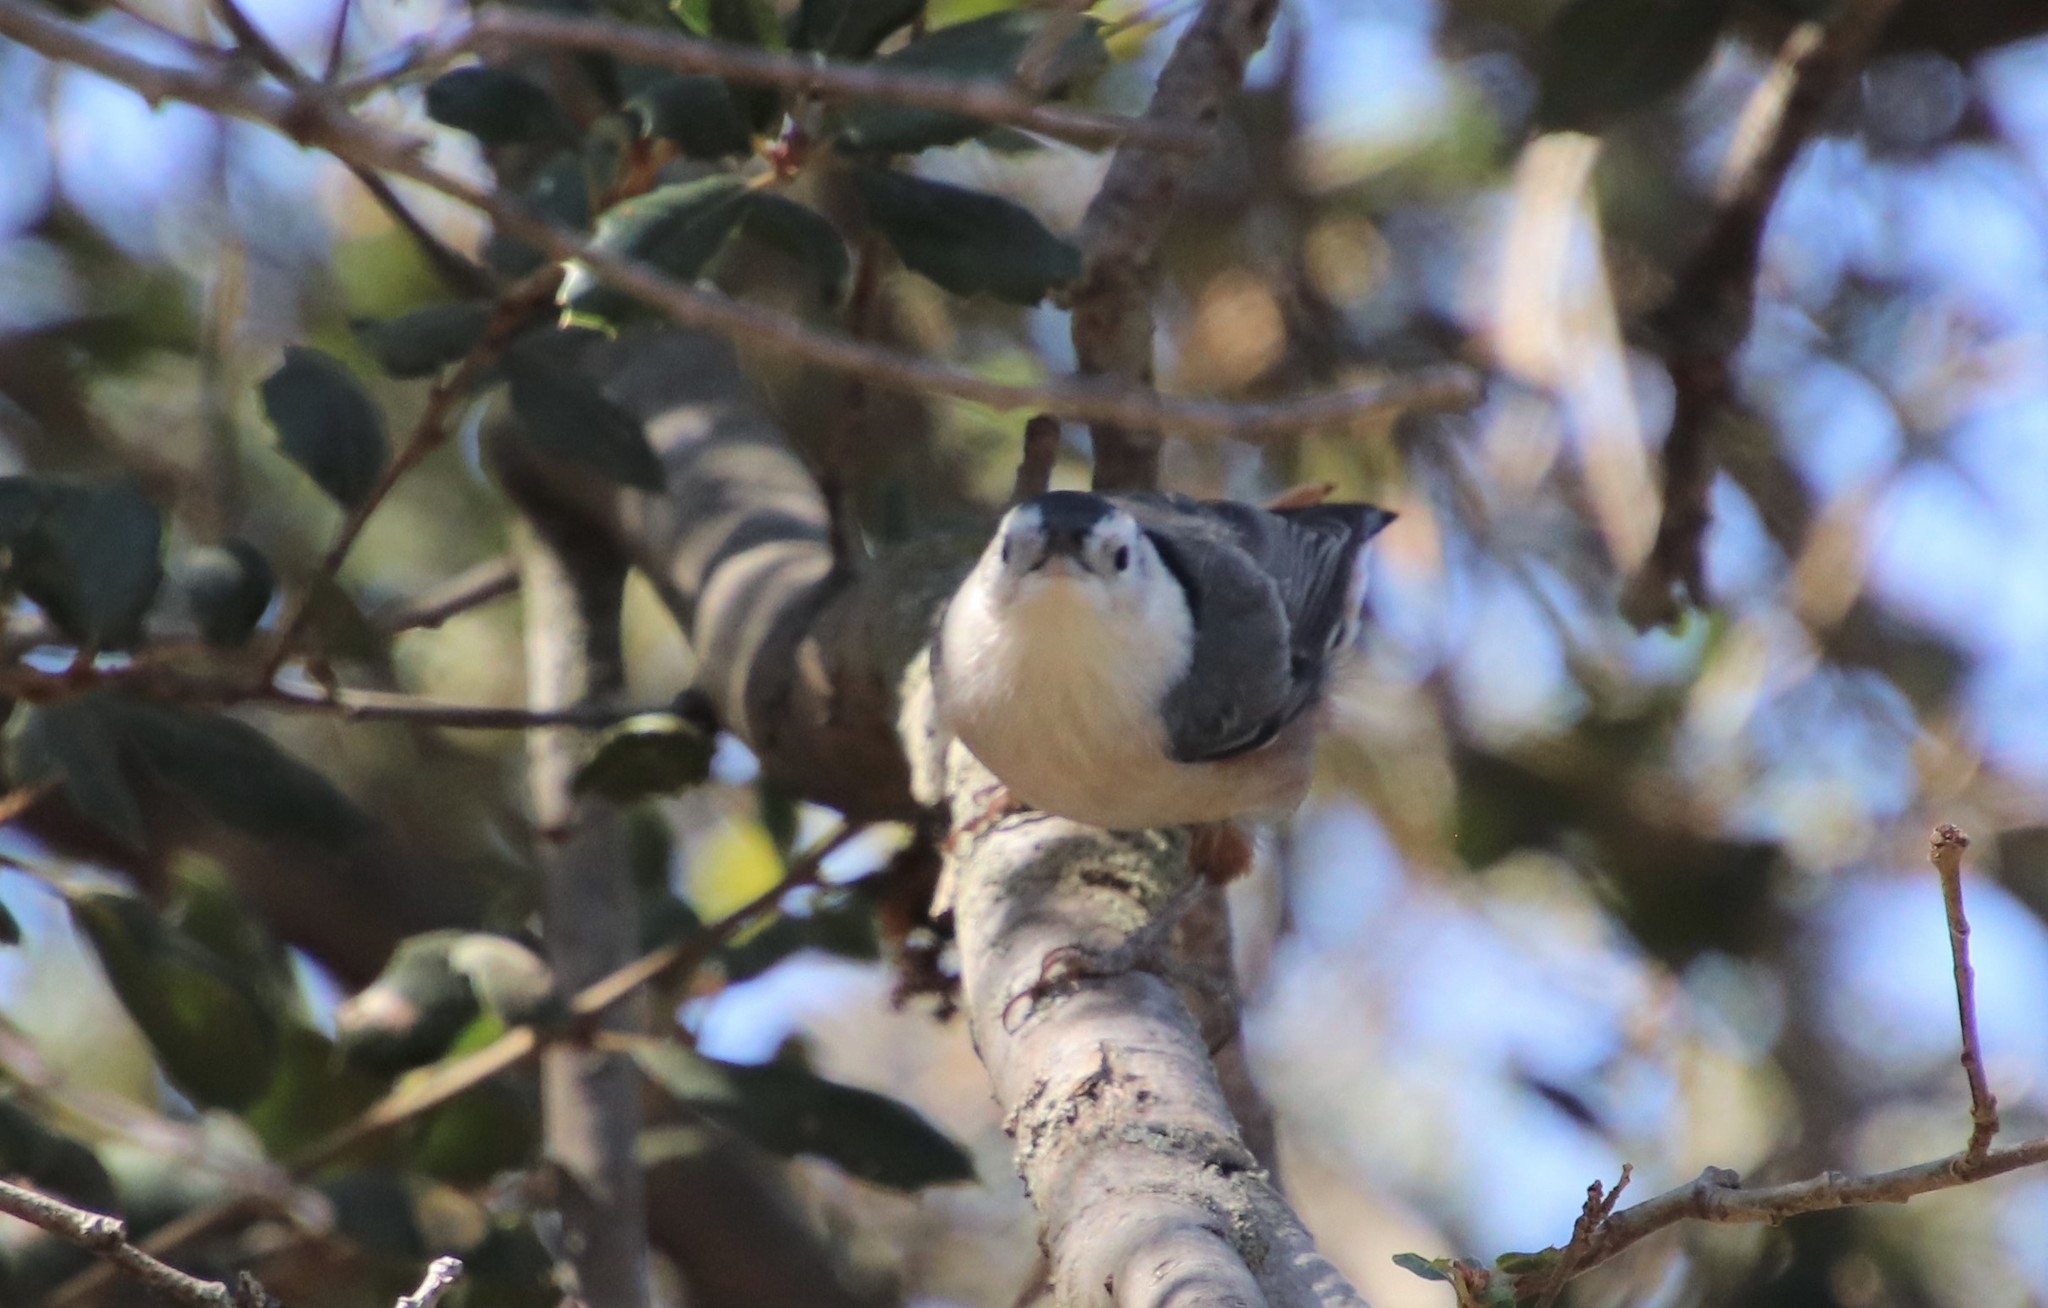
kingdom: Animalia
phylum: Chordata
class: Aves
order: Passeriformes
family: Sittidae
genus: Sitta
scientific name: Sitta carolinensis
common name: White-breasted nuthatch
